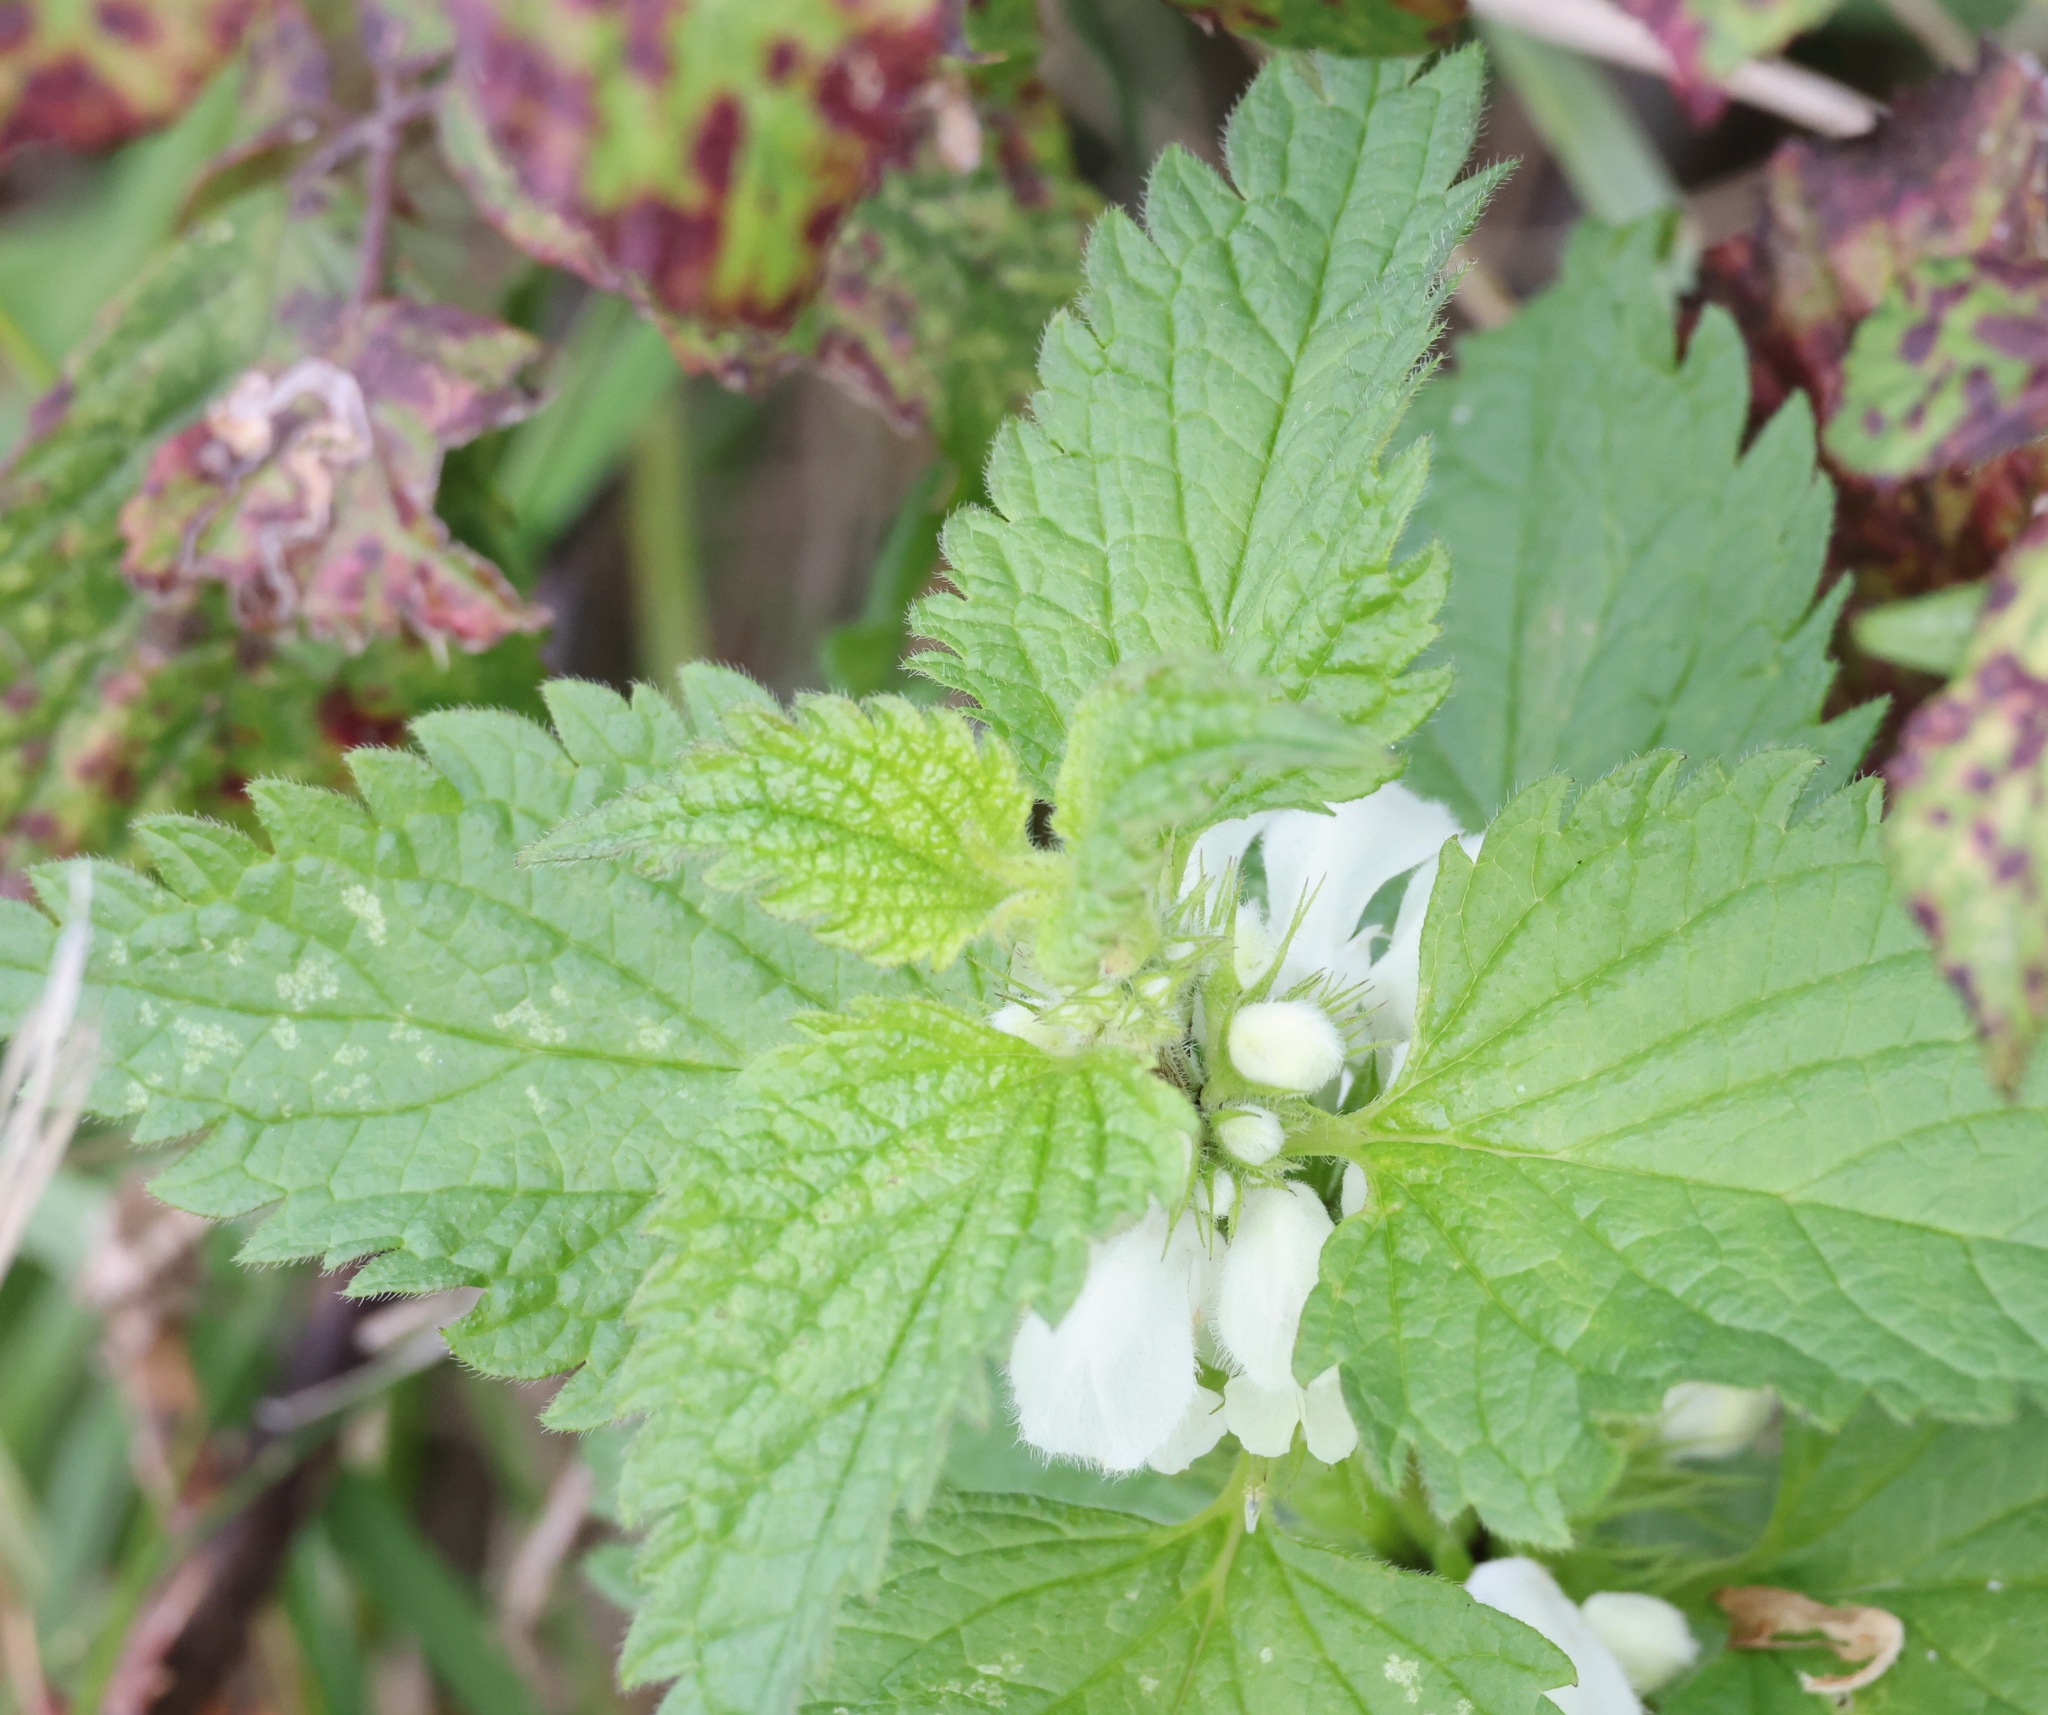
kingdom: Plantae
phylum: Tracheophyta
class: Magnoliopsida
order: Lamiales
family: Lamiaceae
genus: Lamium
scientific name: Lamium album
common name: White dead-nettle
